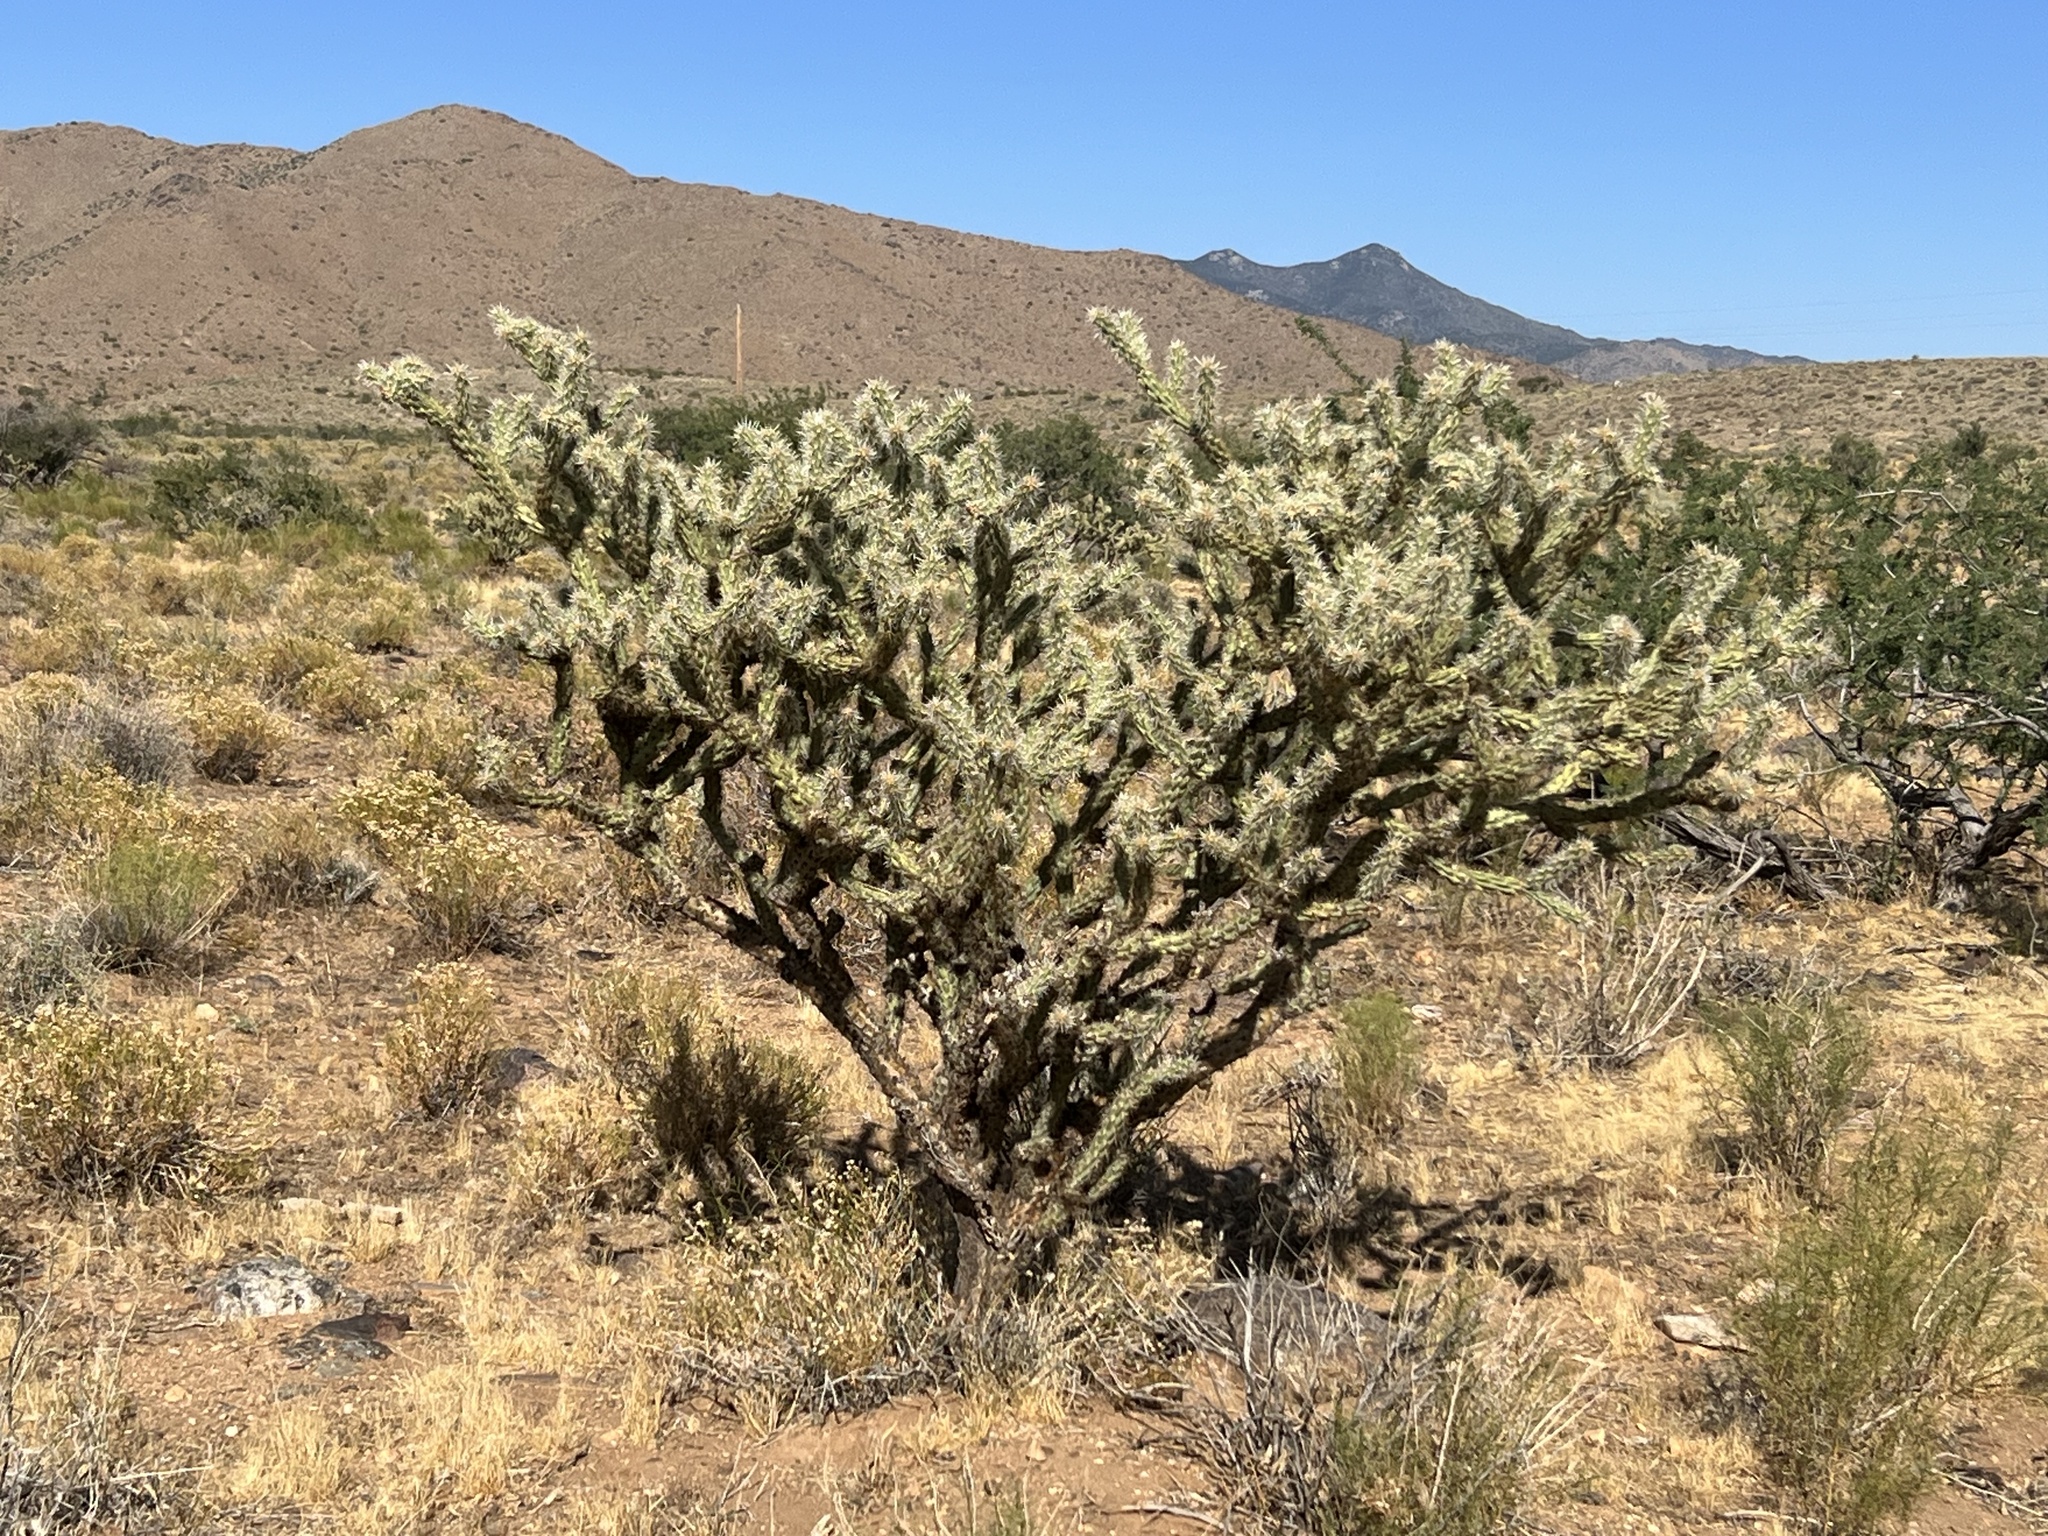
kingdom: Plantae
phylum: Tracheophyta
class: Magnoliopsida
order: Caryophyllales
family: Cactaceae
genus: Cylindropuntia
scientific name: Cylindropuntia acanthocarpa
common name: Buckhorn cholla
